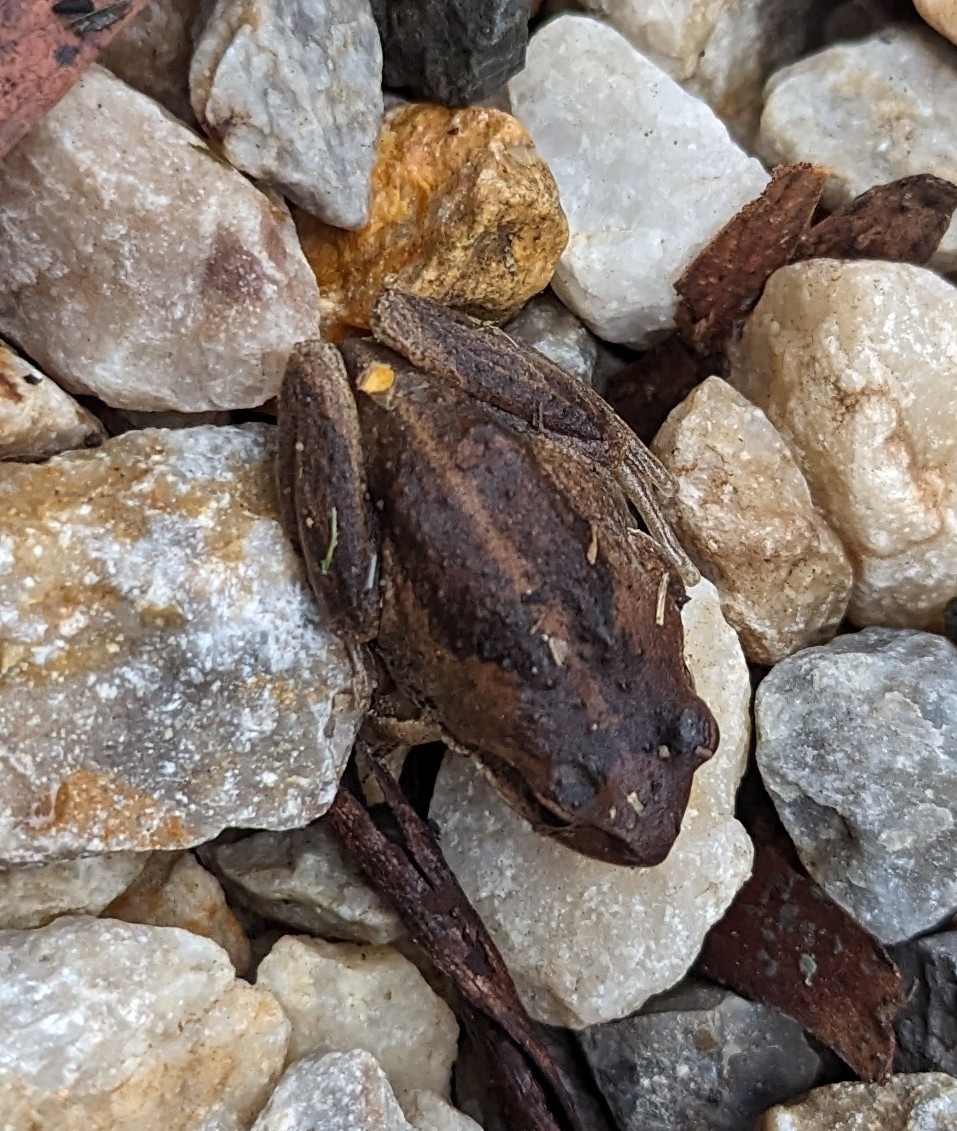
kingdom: Animalia
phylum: Chordata
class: Amphibia
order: Anura
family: Pelodryadidae
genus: Litoria
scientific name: Litoria verreauxii
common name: Alpine tree frog
